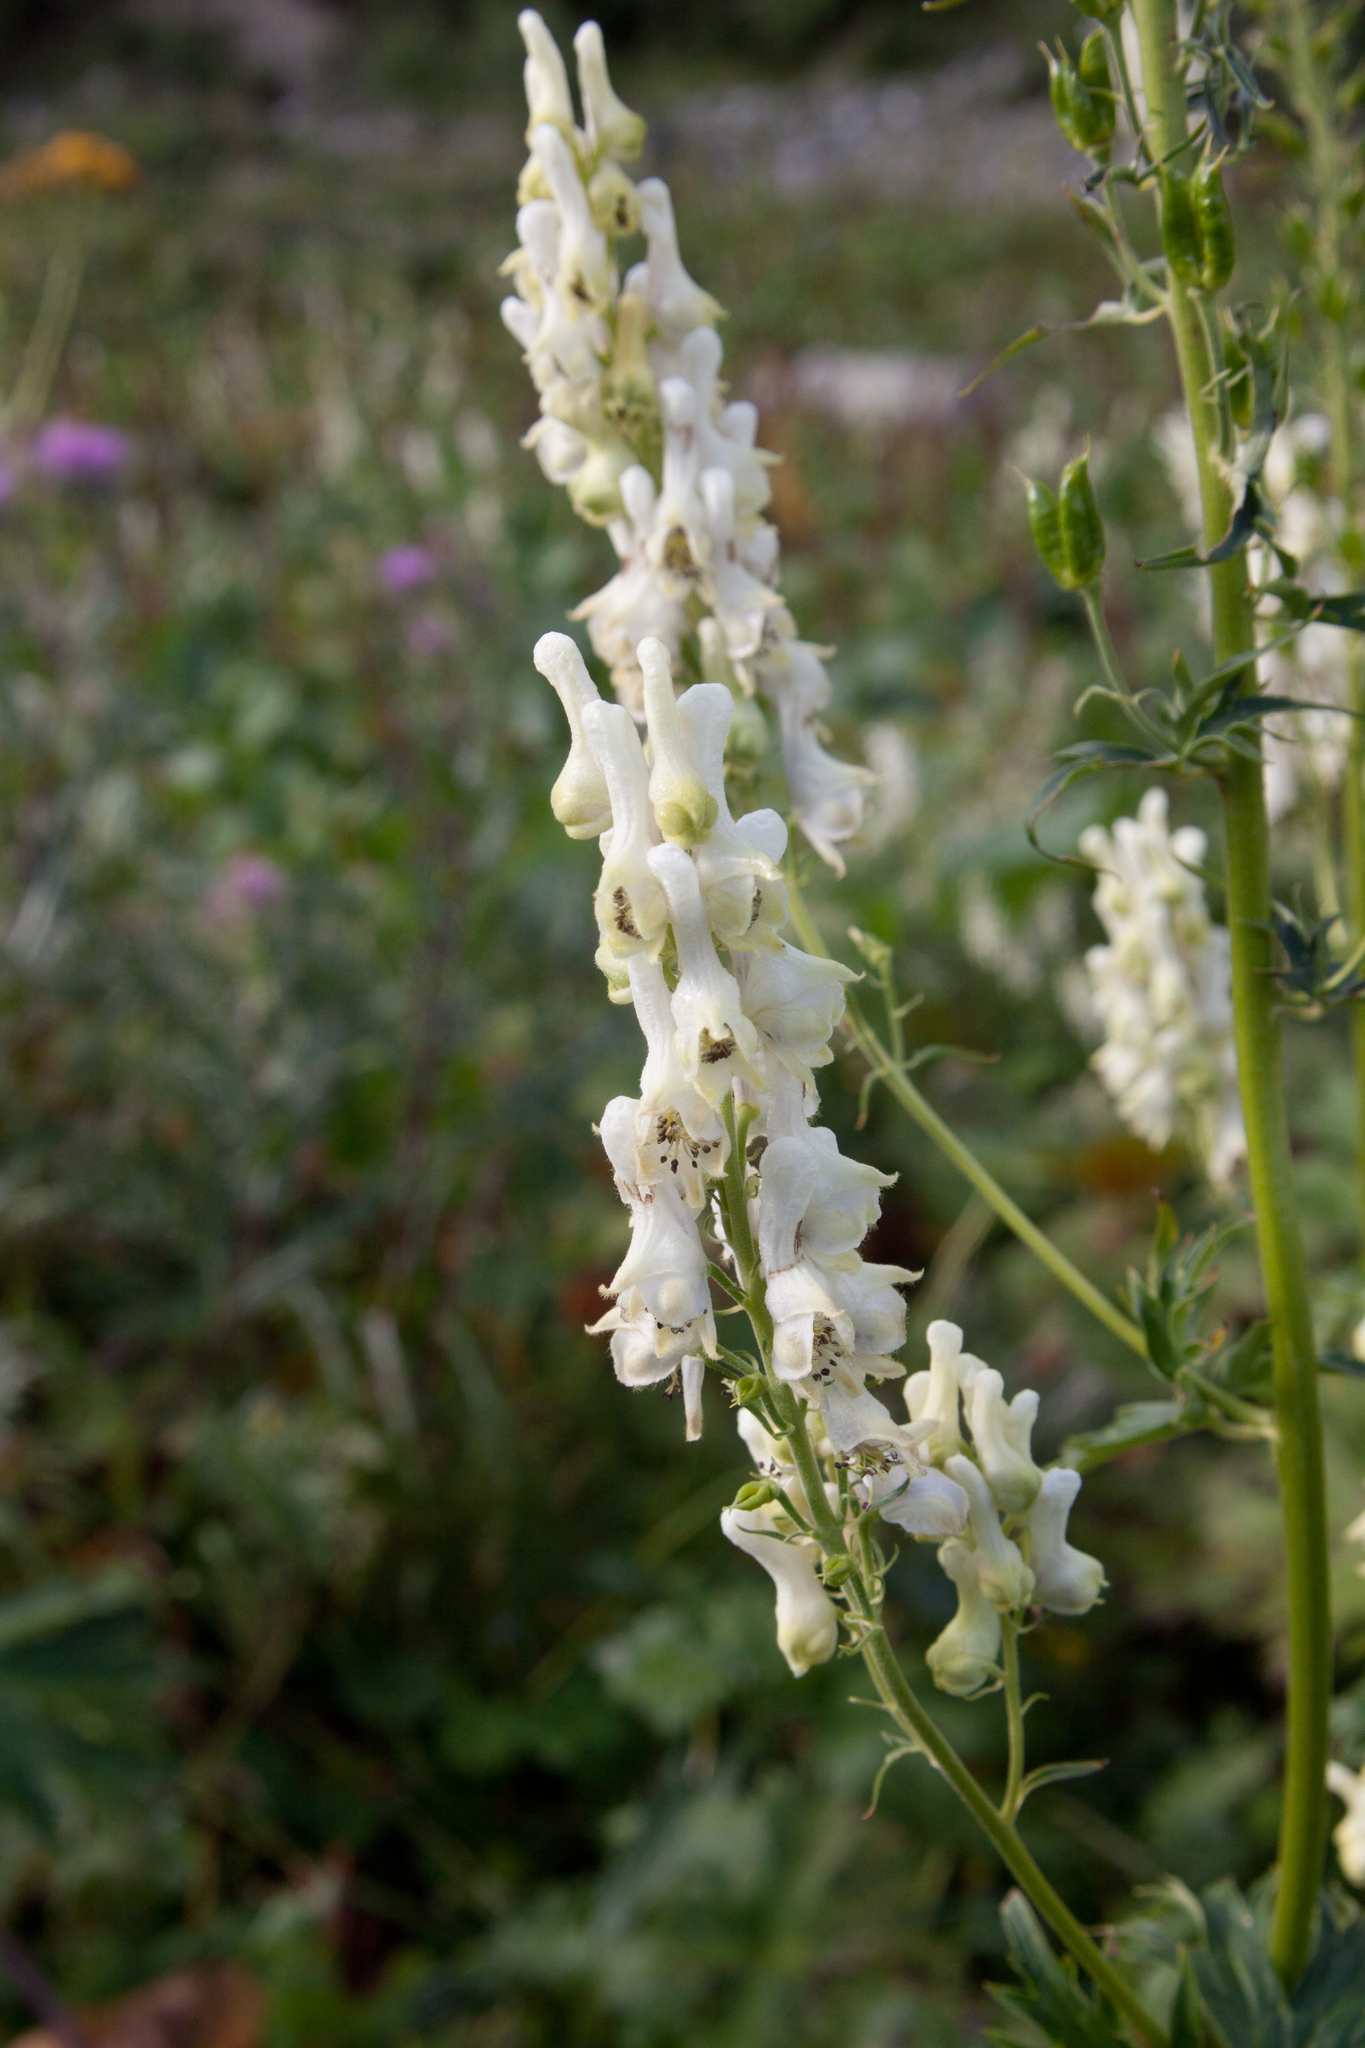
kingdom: Plantae
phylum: Tracheophyta
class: Magnoliopsida
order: Ranunculales
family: Ranunculaceae
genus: Aconitum
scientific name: Aconitum orientale
